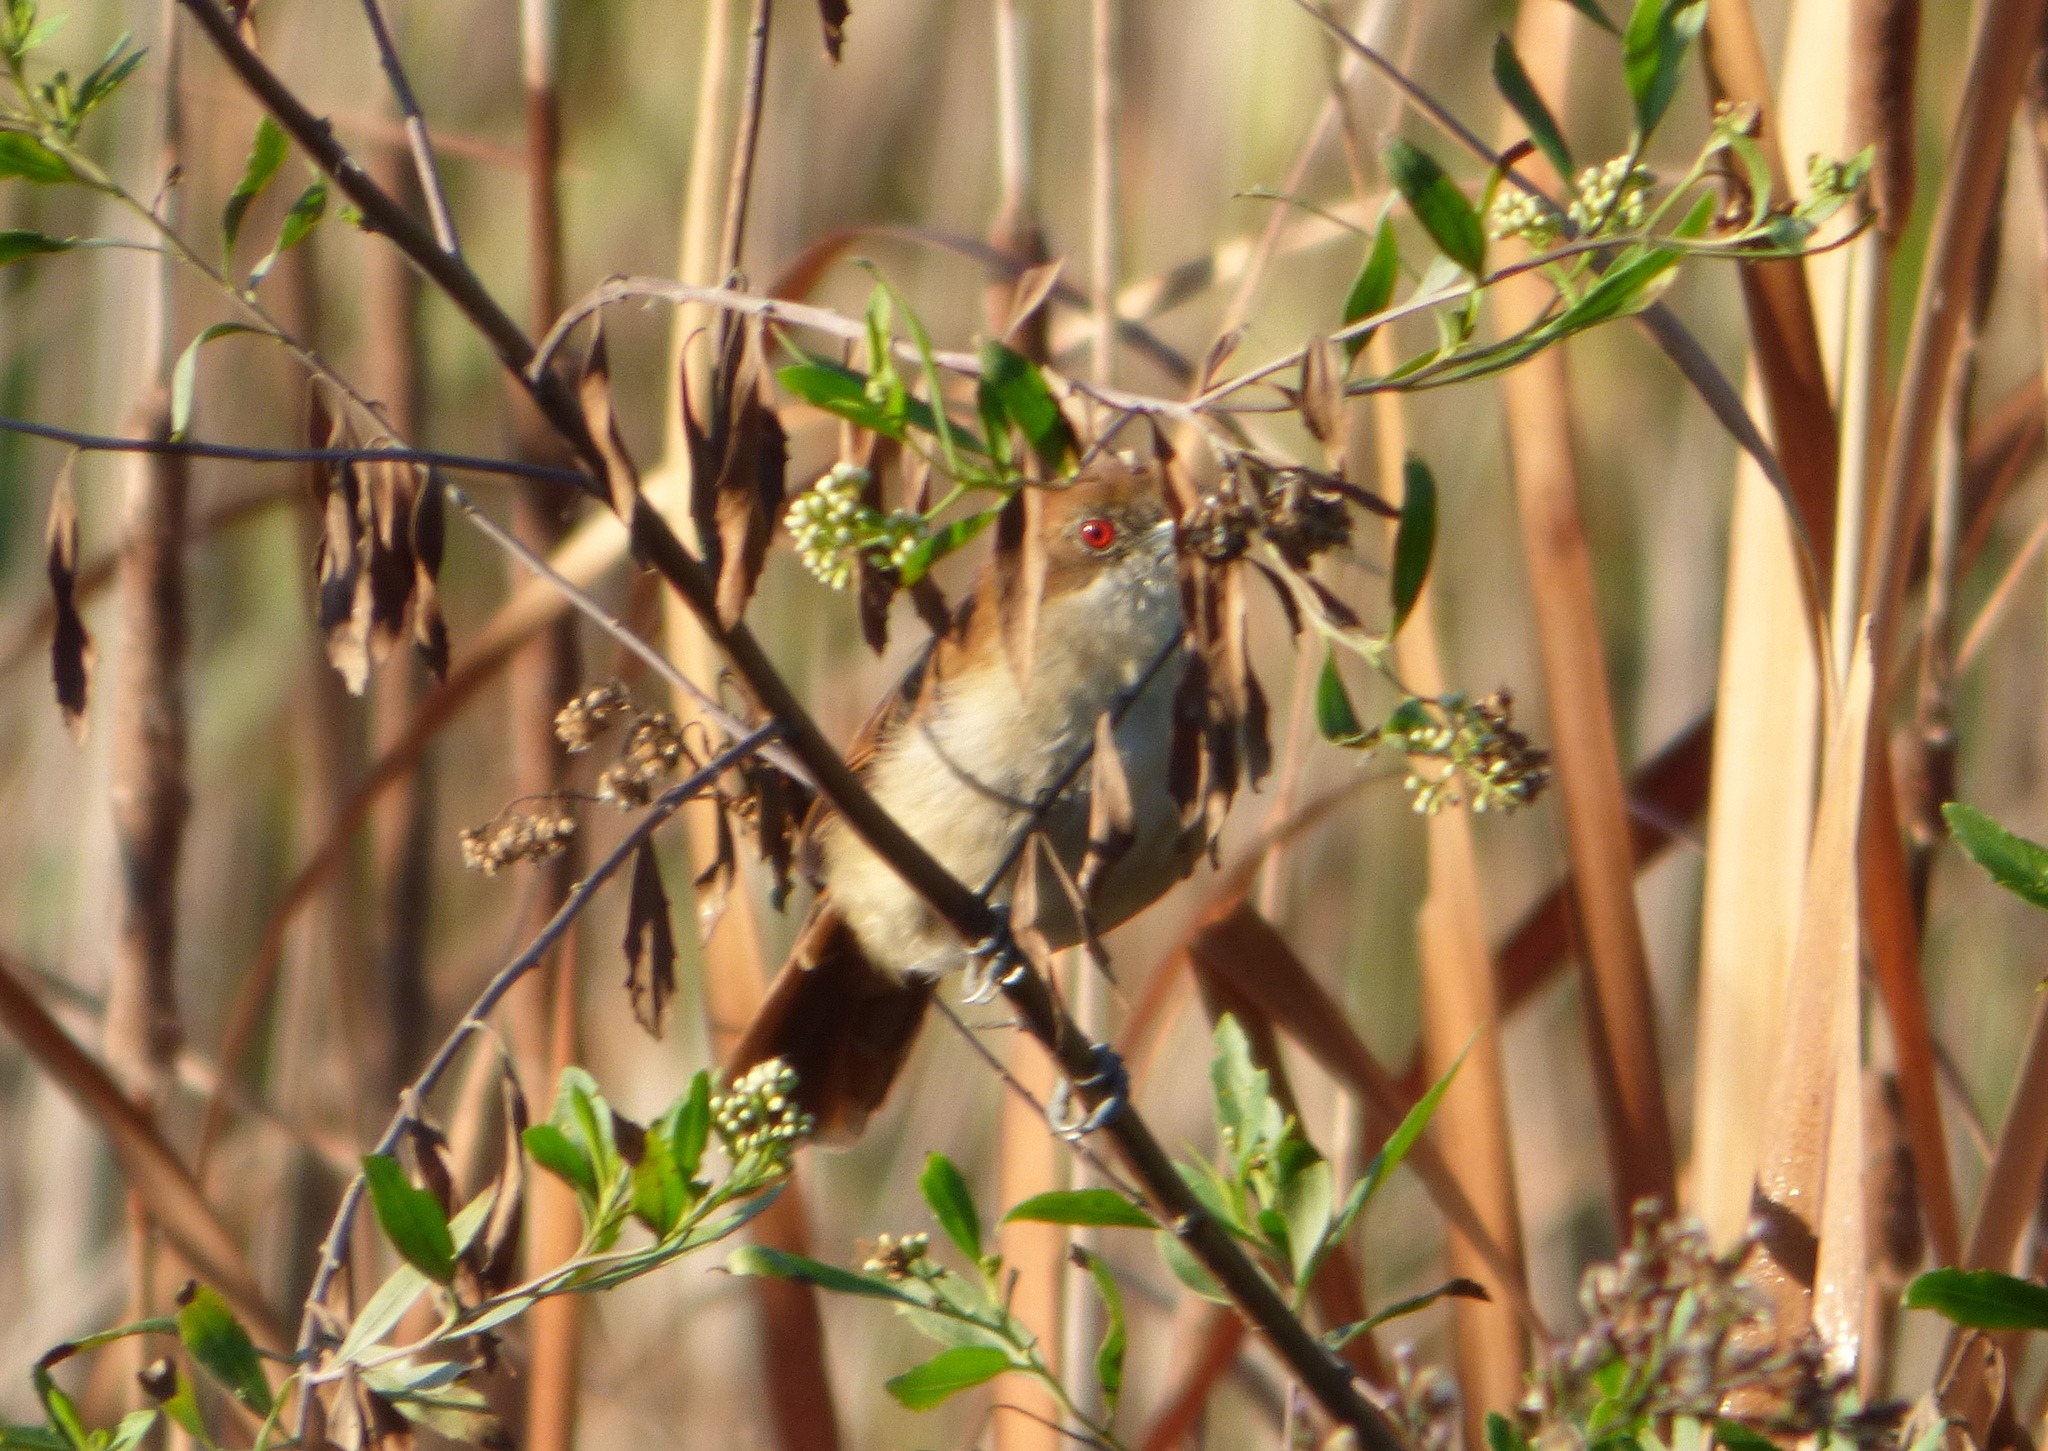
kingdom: Animalia
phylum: Chordata
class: Aves
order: Passeriformes
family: Thamnophilidae
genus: Taraba
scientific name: Taraba major
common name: Great antshrike
